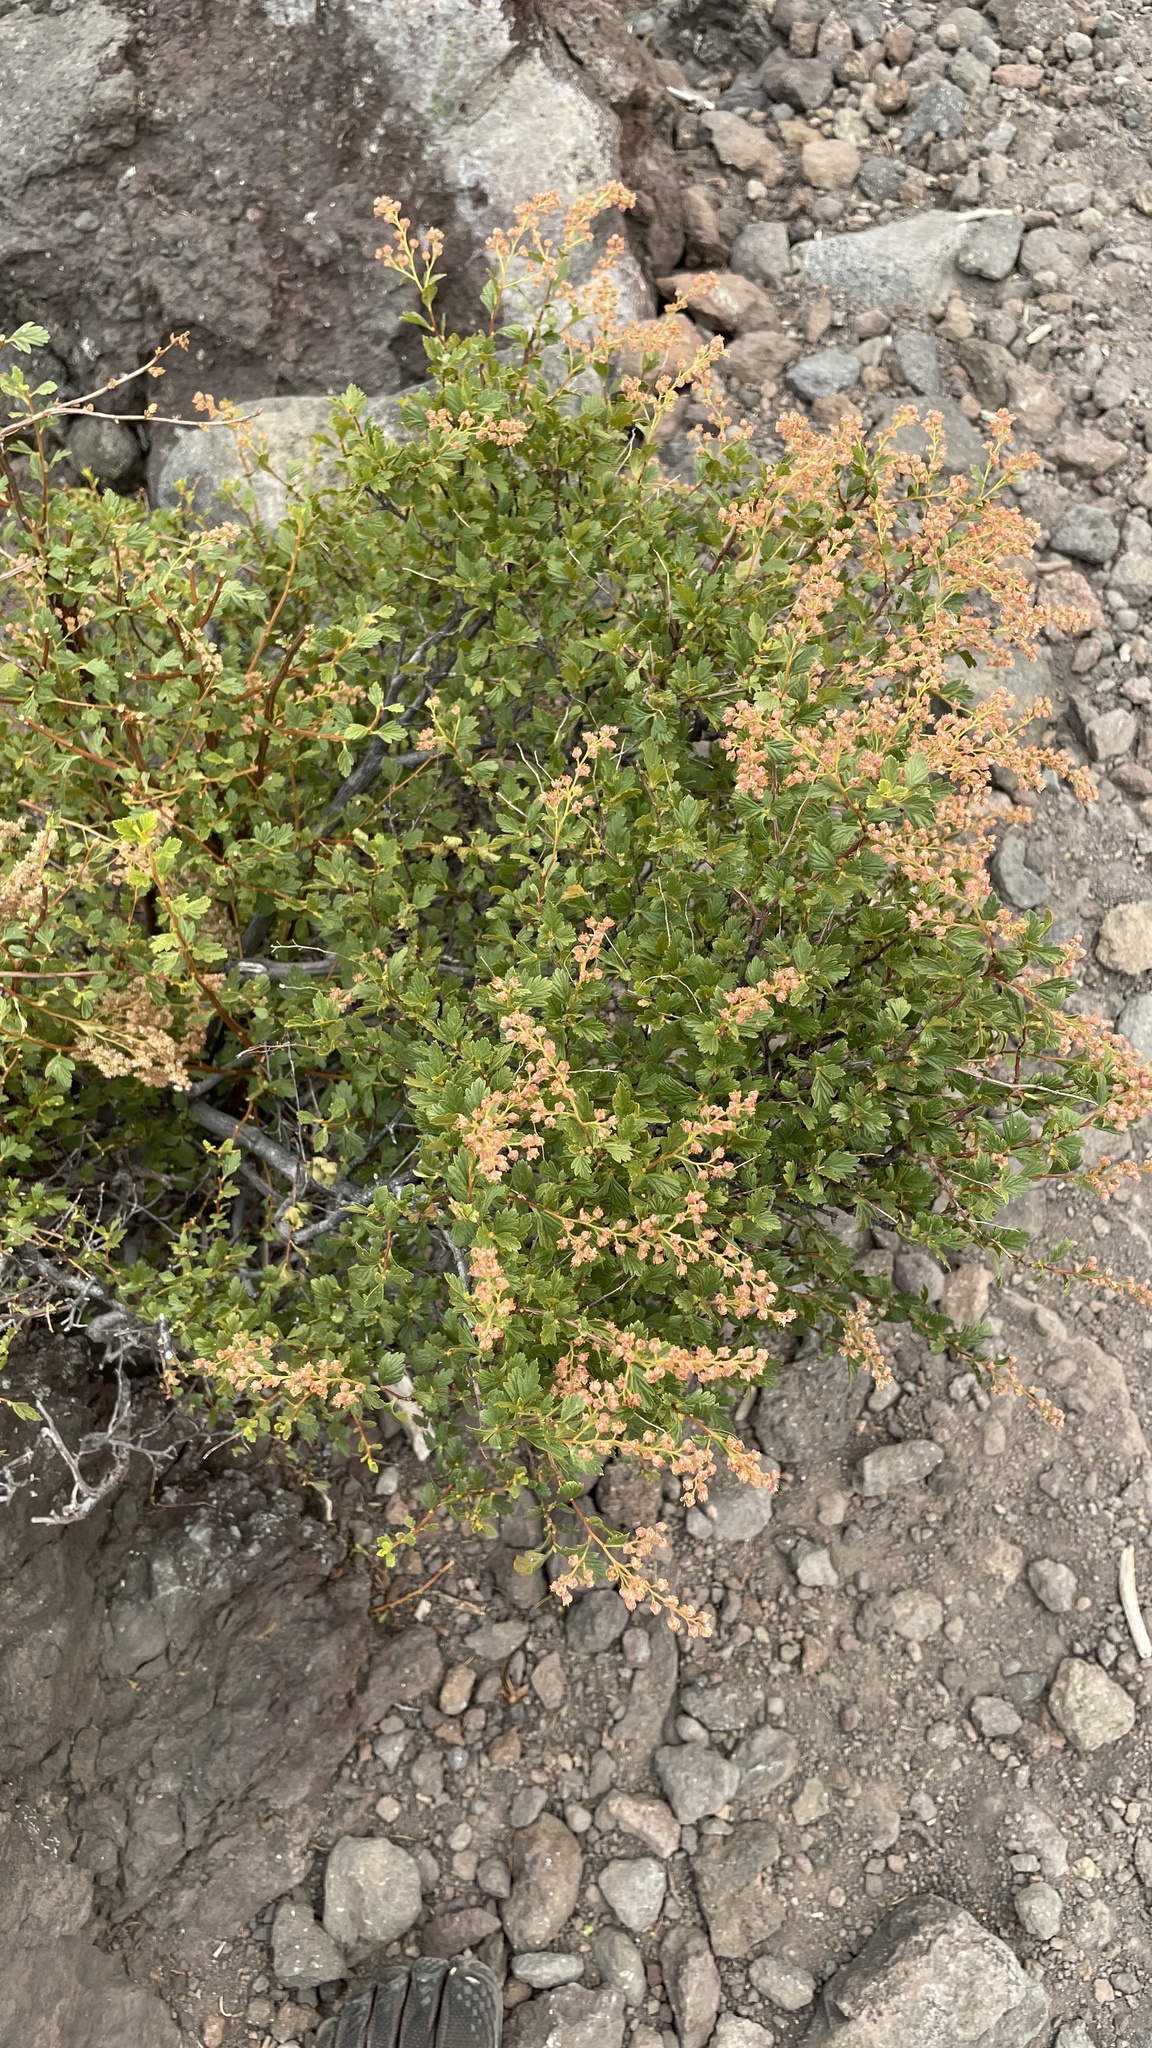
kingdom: Plantae
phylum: Tracheophyta
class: Magnoliopsida
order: Rosales
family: Rosaceae
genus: Holodiscus
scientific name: Holodiscus discolor
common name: Oceanspray
